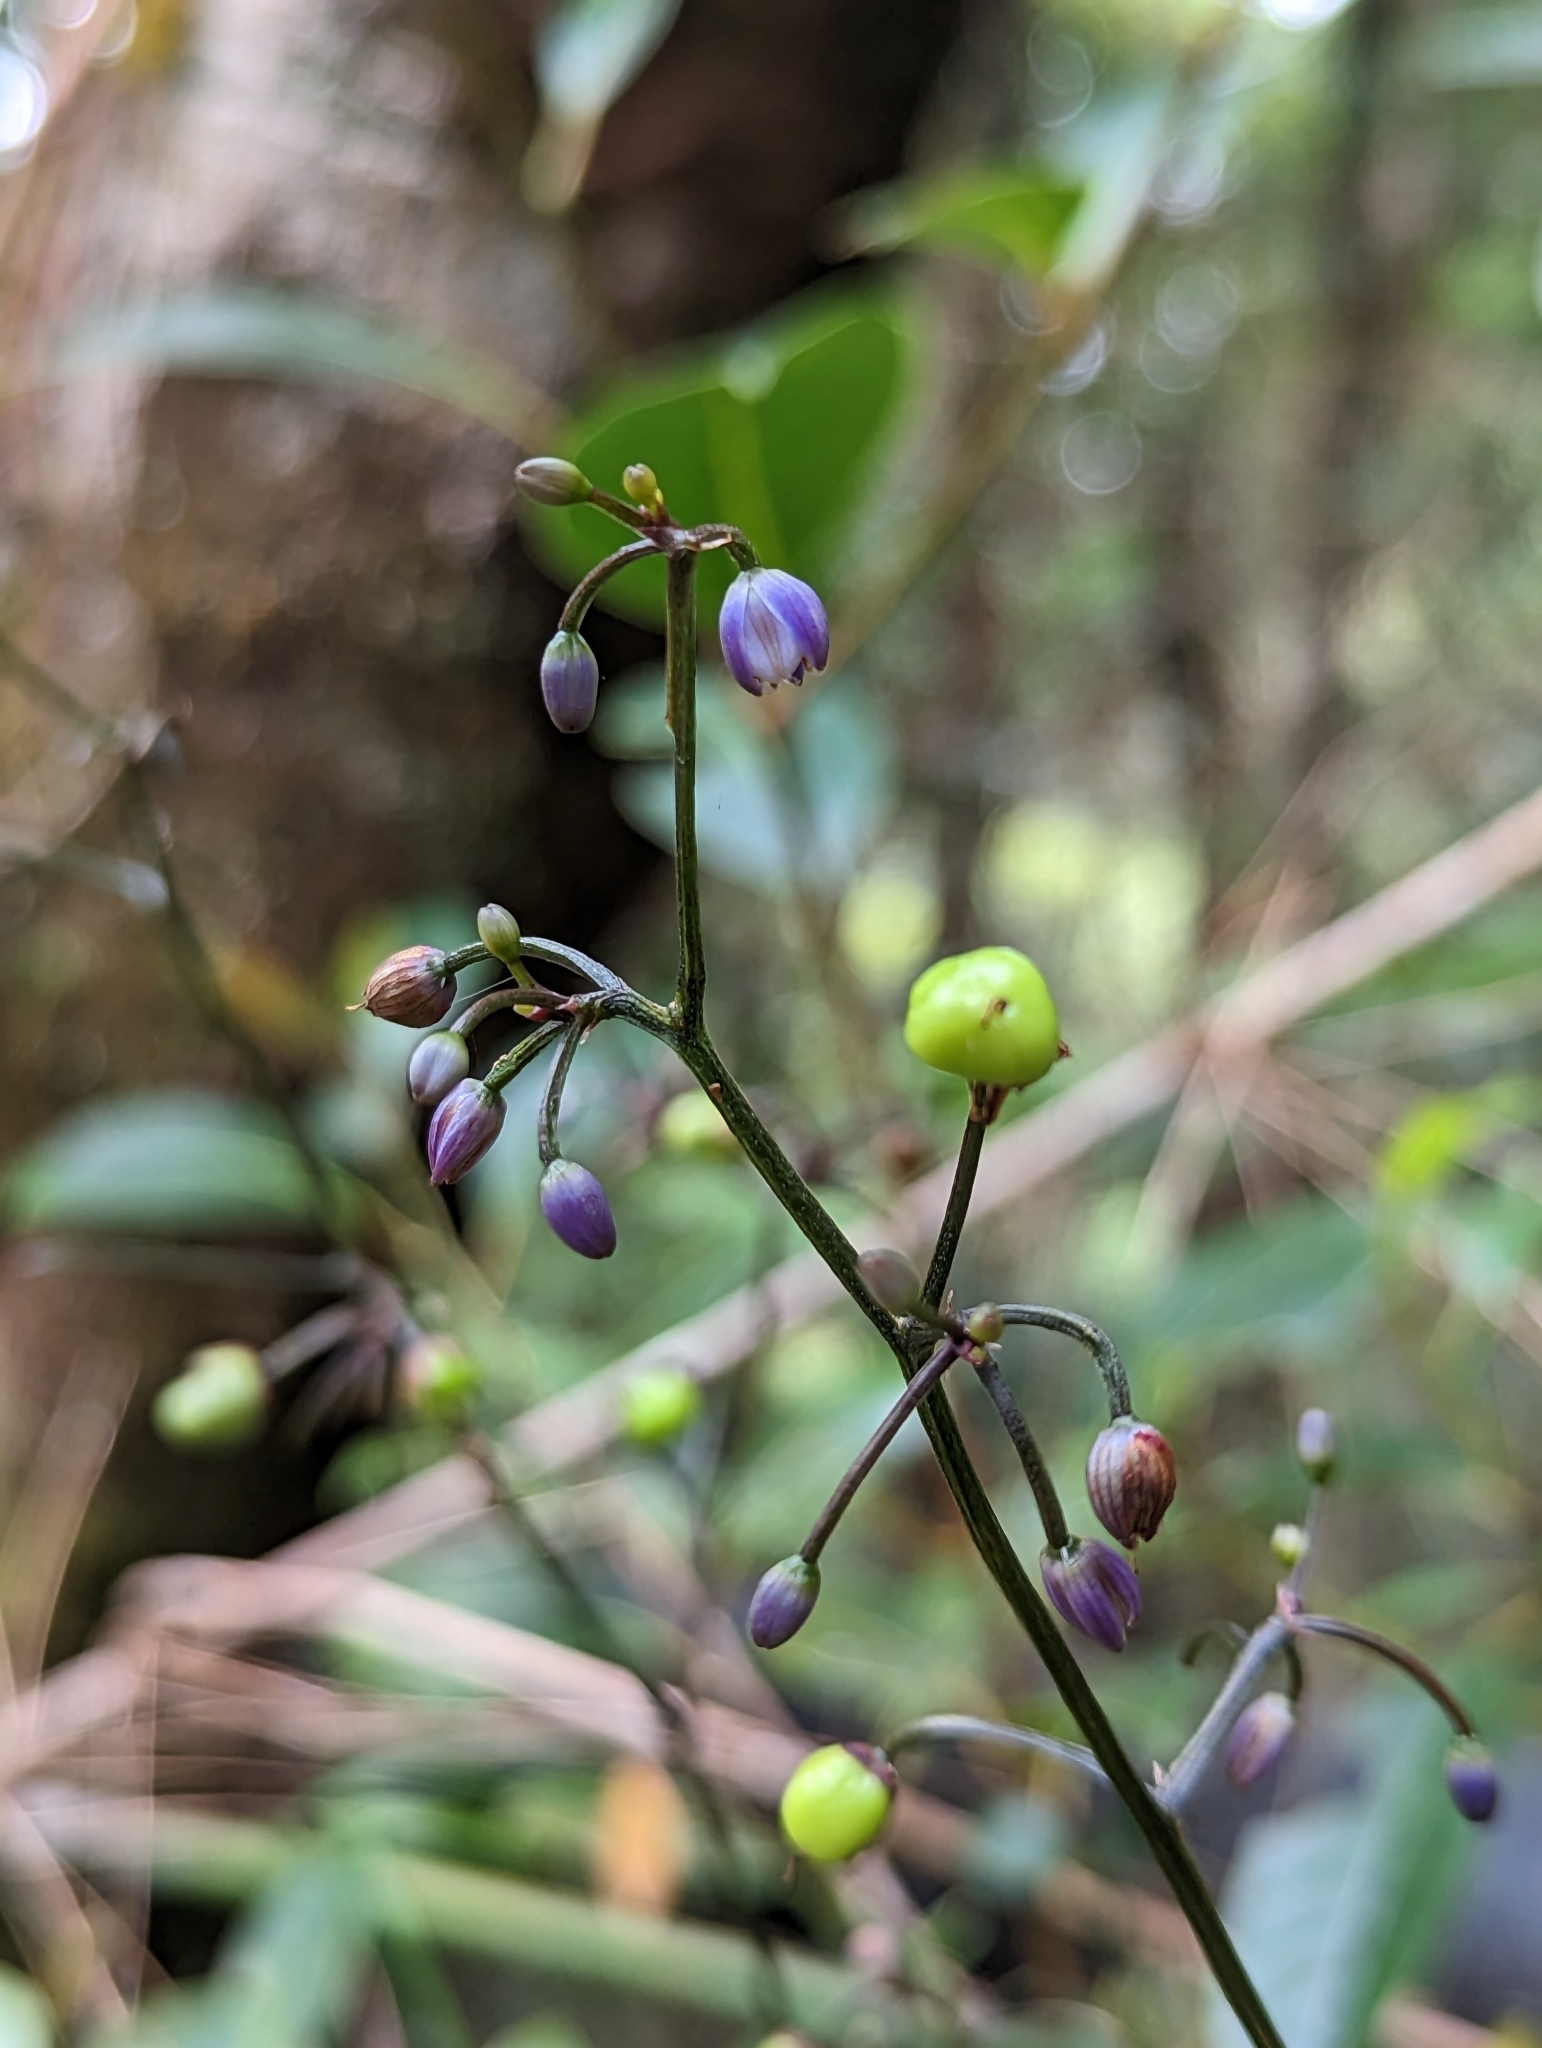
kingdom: Plantae
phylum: Tracheophyta
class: Liliopsida
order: Asparagales
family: Asphodelaceae
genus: Dianella
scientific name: Dianella ensifolia
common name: New zealand lilyplant
